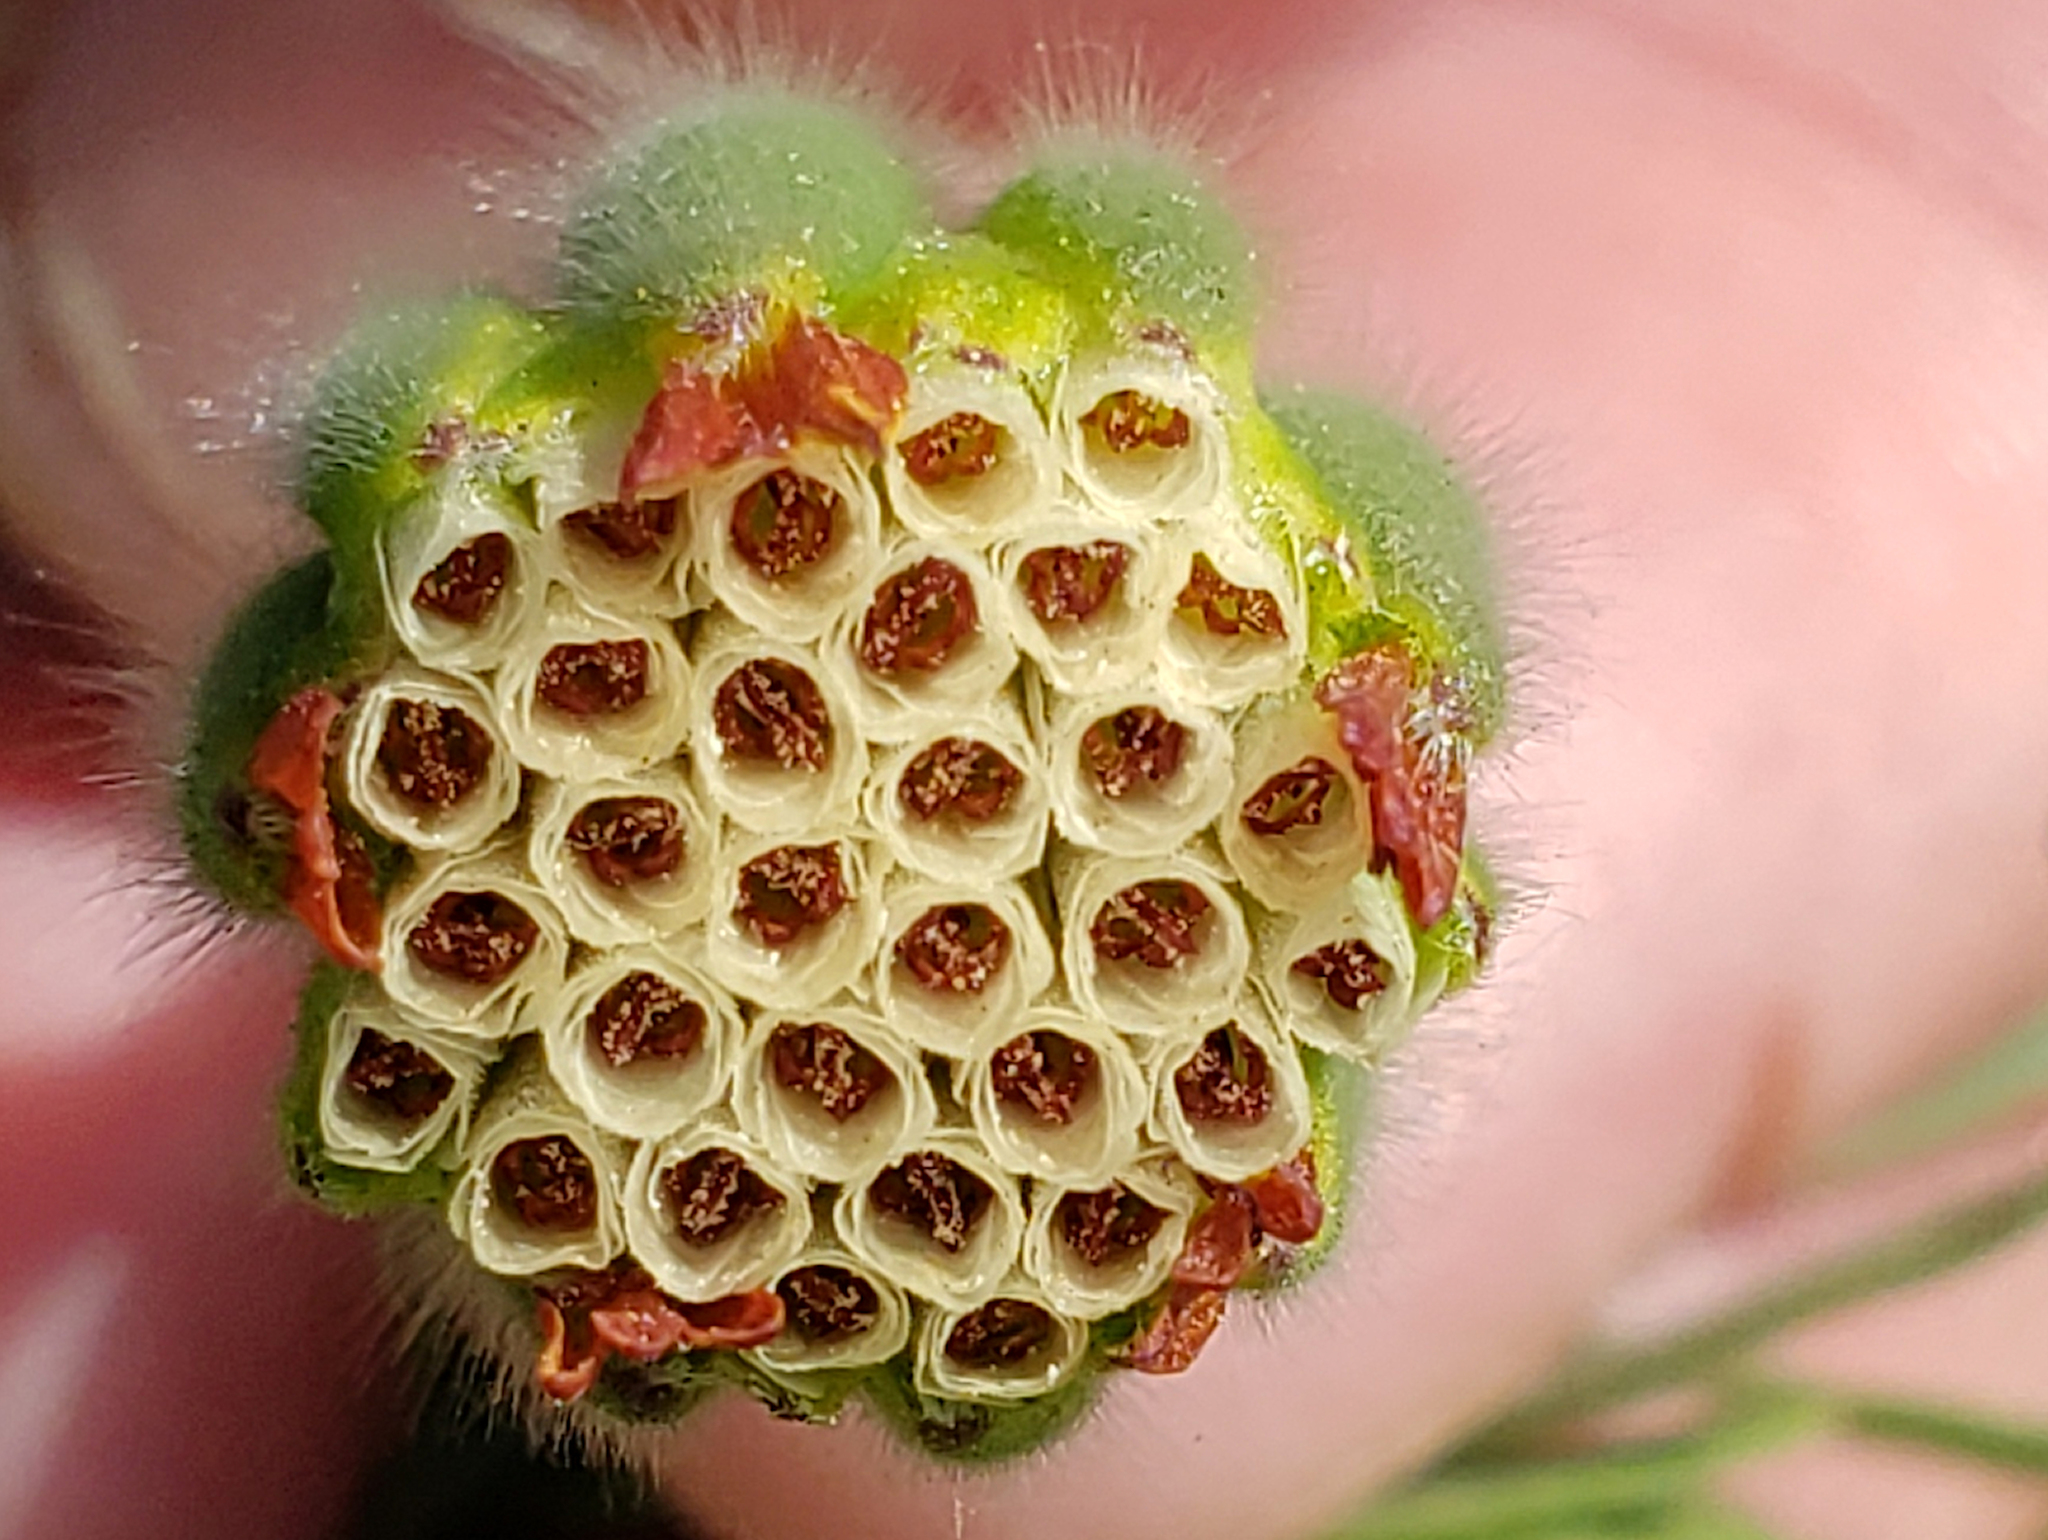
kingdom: Plantae
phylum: Tracheophyta
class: Magnoliopsida
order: Asterales
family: Asteraceae
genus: Achyrachaena
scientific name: Achyrachaena mollis
